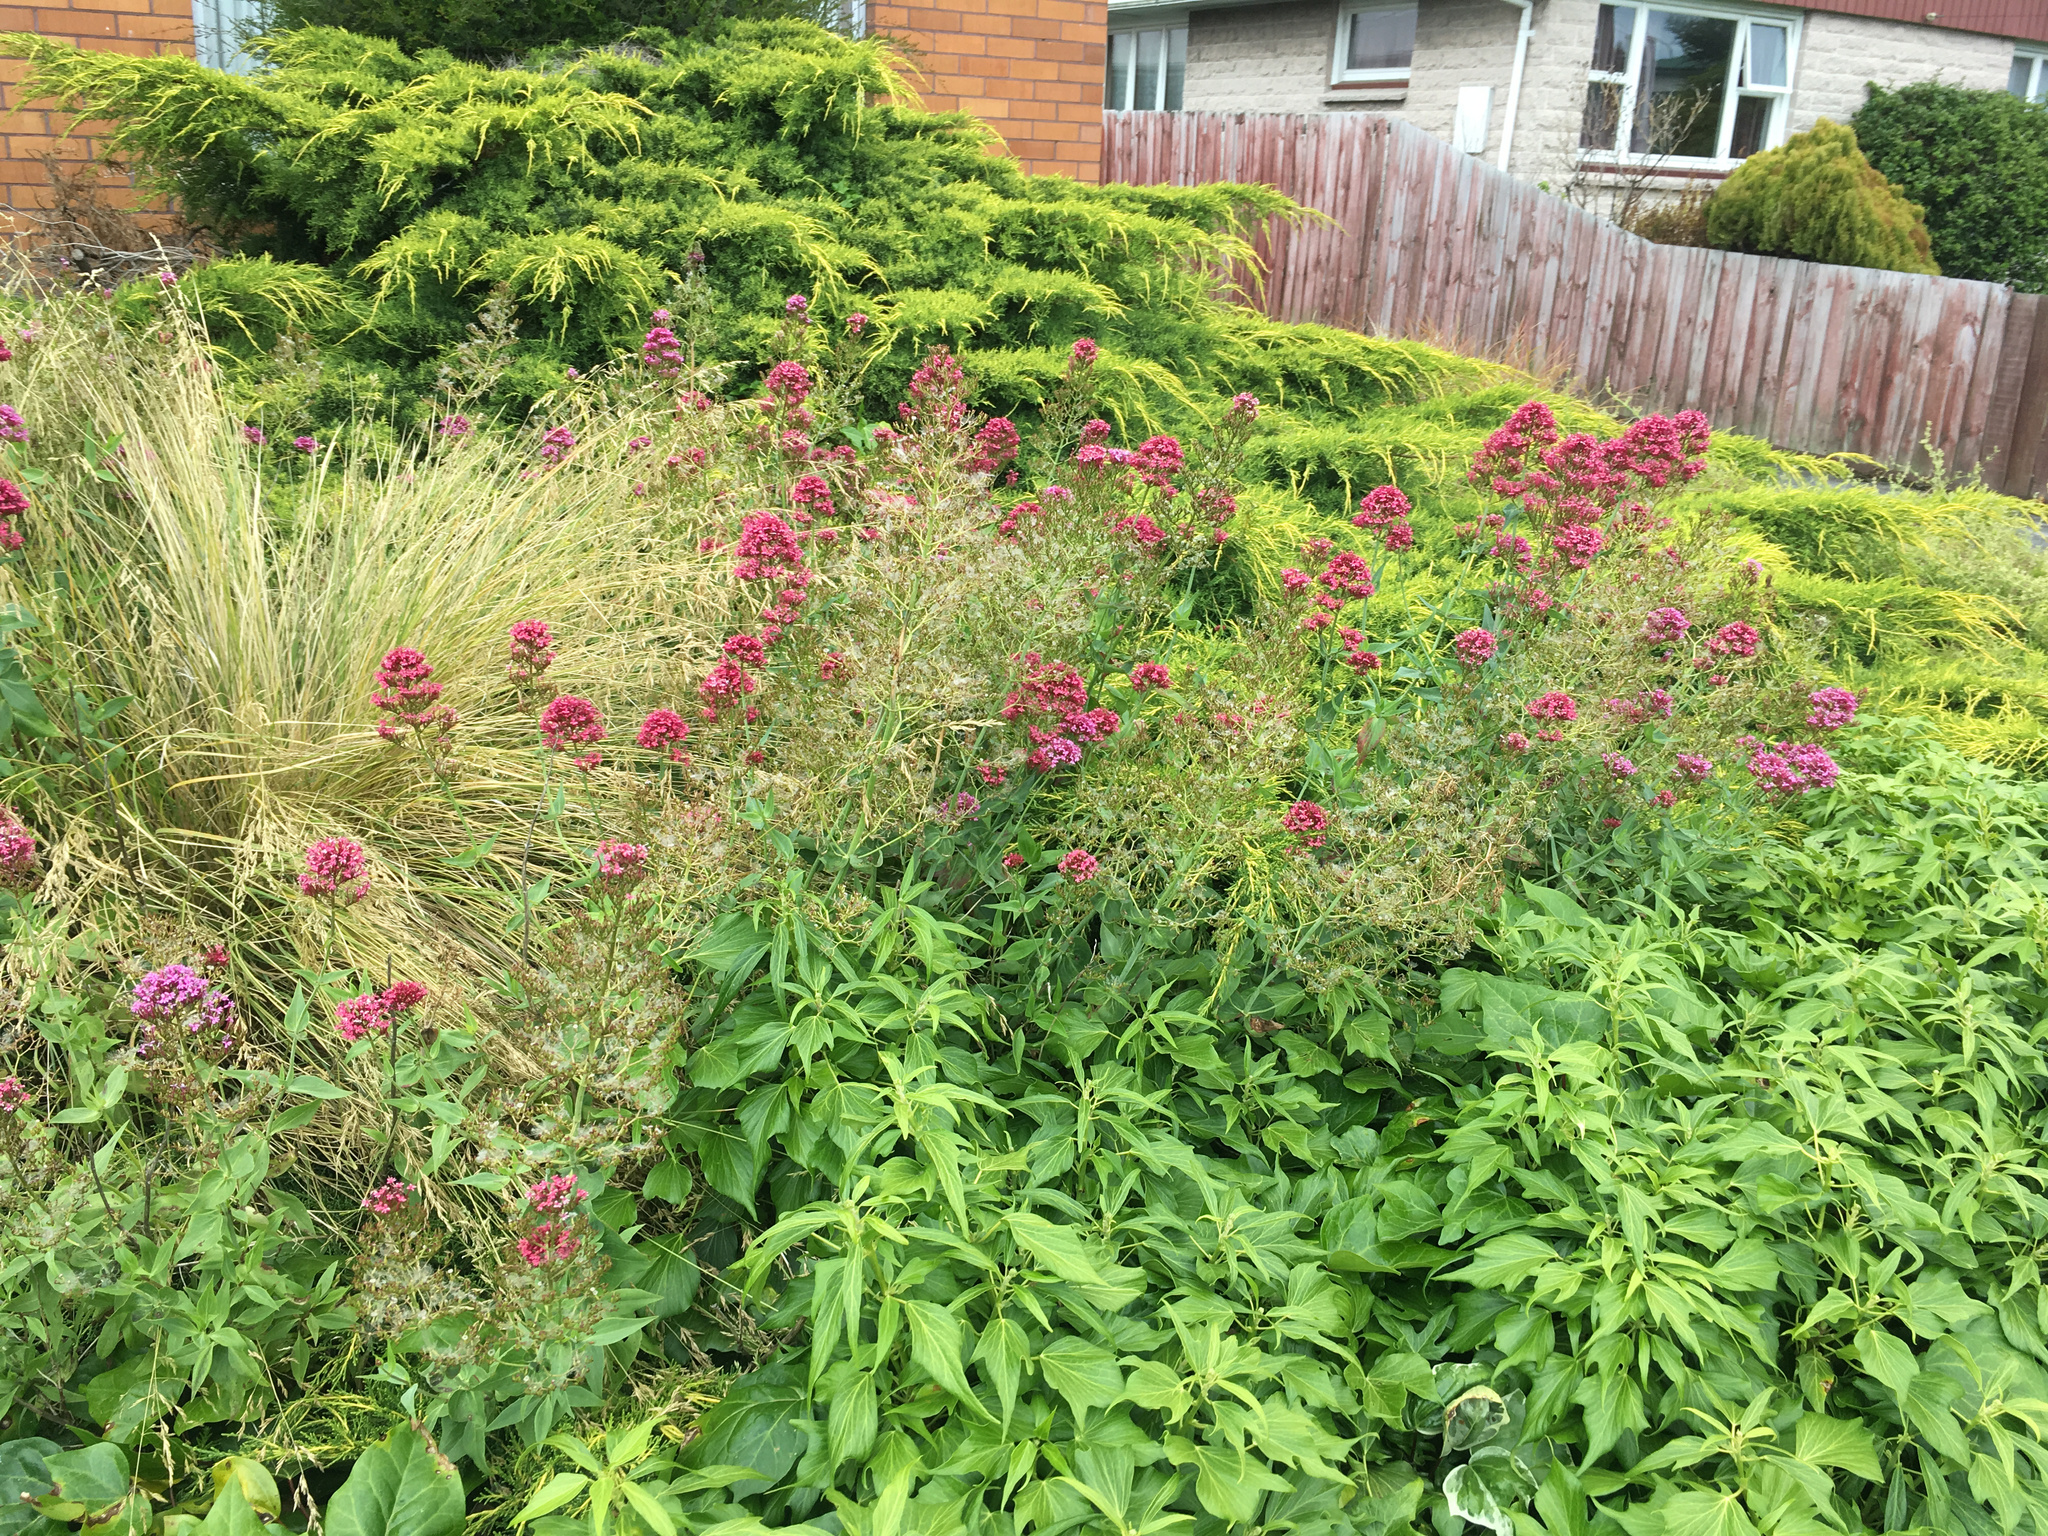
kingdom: Plantae
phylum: Tracheophyta
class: Magnoliopsida
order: Dipsacales
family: Caprifoliaceae
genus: Centranthus
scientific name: Centranthus ruber
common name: Red valerian
